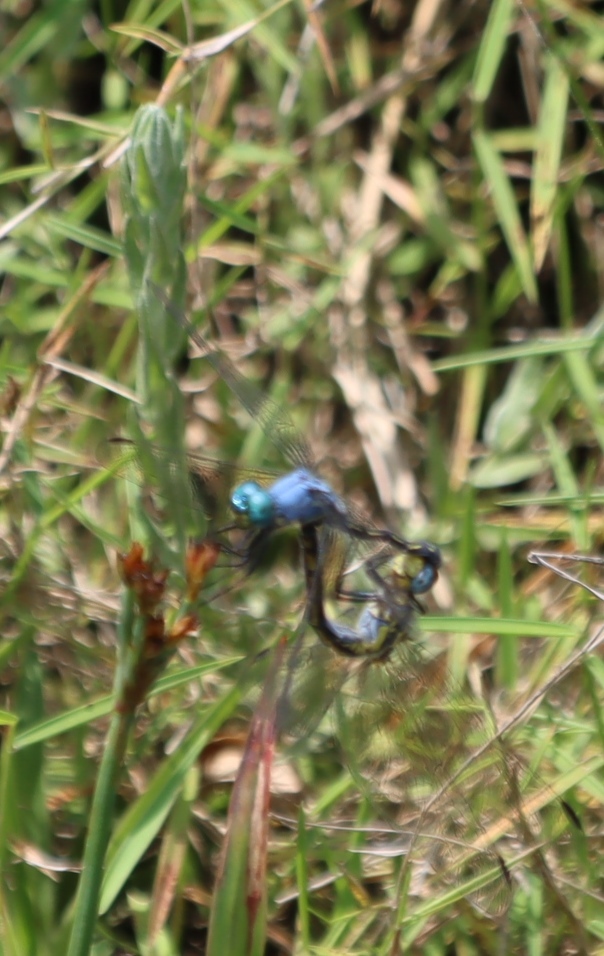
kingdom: Animalia
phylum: Arthropoda
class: Insecta
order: Odonata
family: Libellulidae
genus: Trithemis
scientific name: Trithemis stictica
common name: Jaunty dropwing
